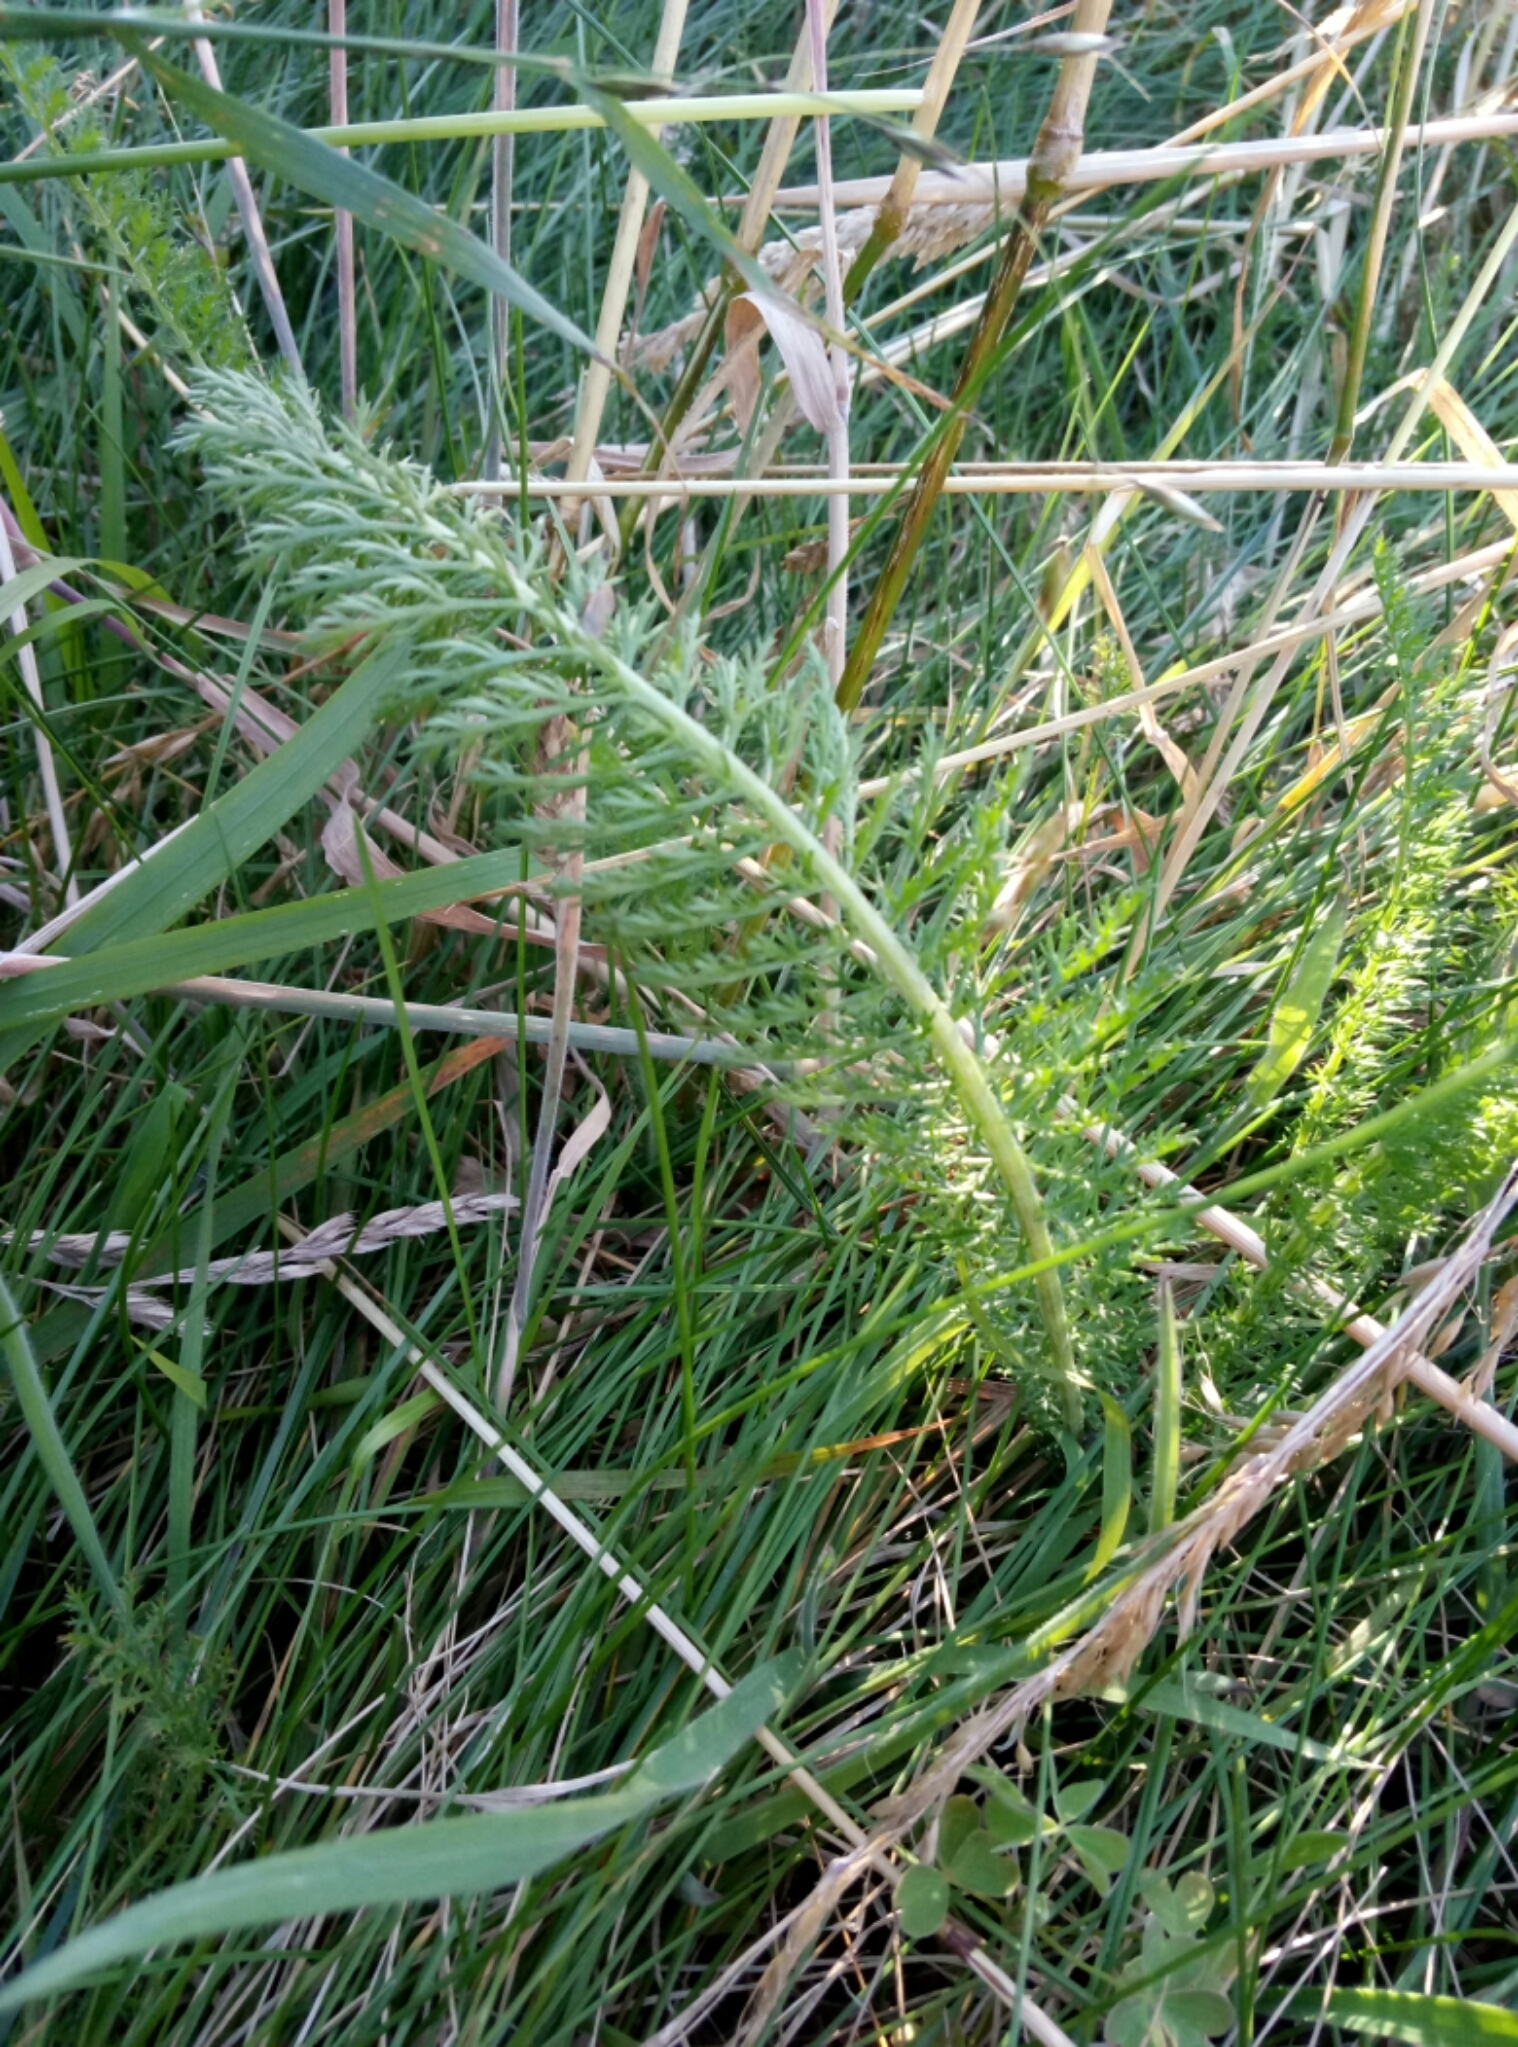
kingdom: Plantae
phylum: Tracheophyta
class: Magnoliopsida
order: Asterales
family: Asteraceae
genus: Achillea
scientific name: Achillea millefolium
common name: Yarrow
